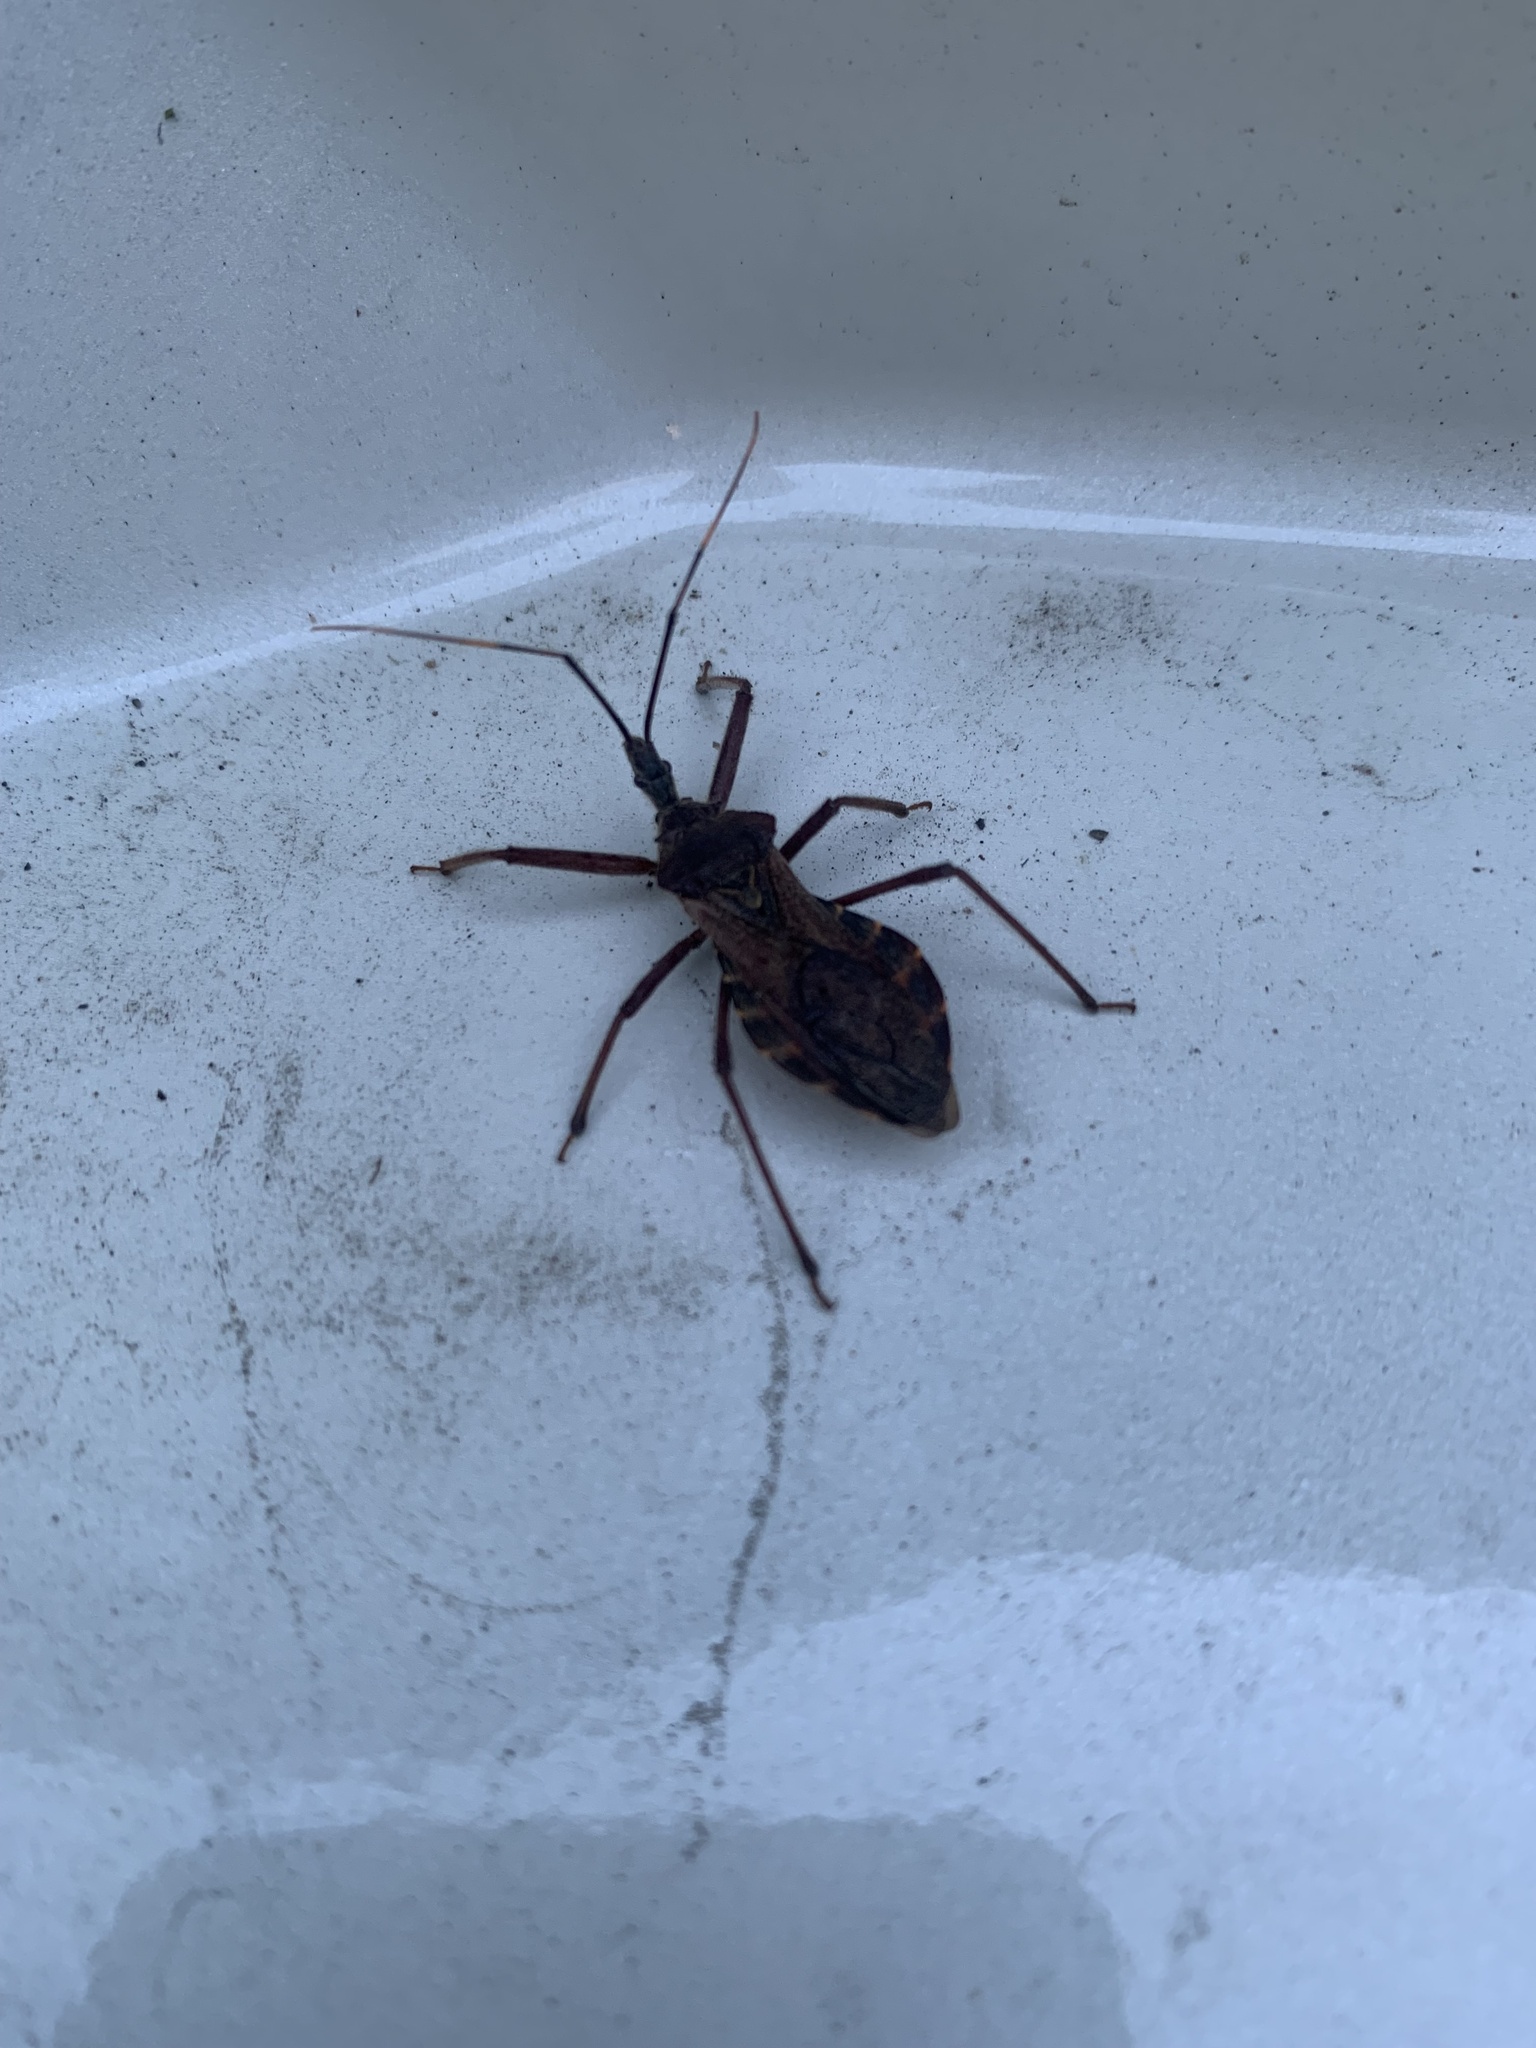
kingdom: Animalia
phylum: Arthropoda
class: Insecta
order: Hemiptera
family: Reduviidae
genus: Isyndus
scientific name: Isyndus obscurus
